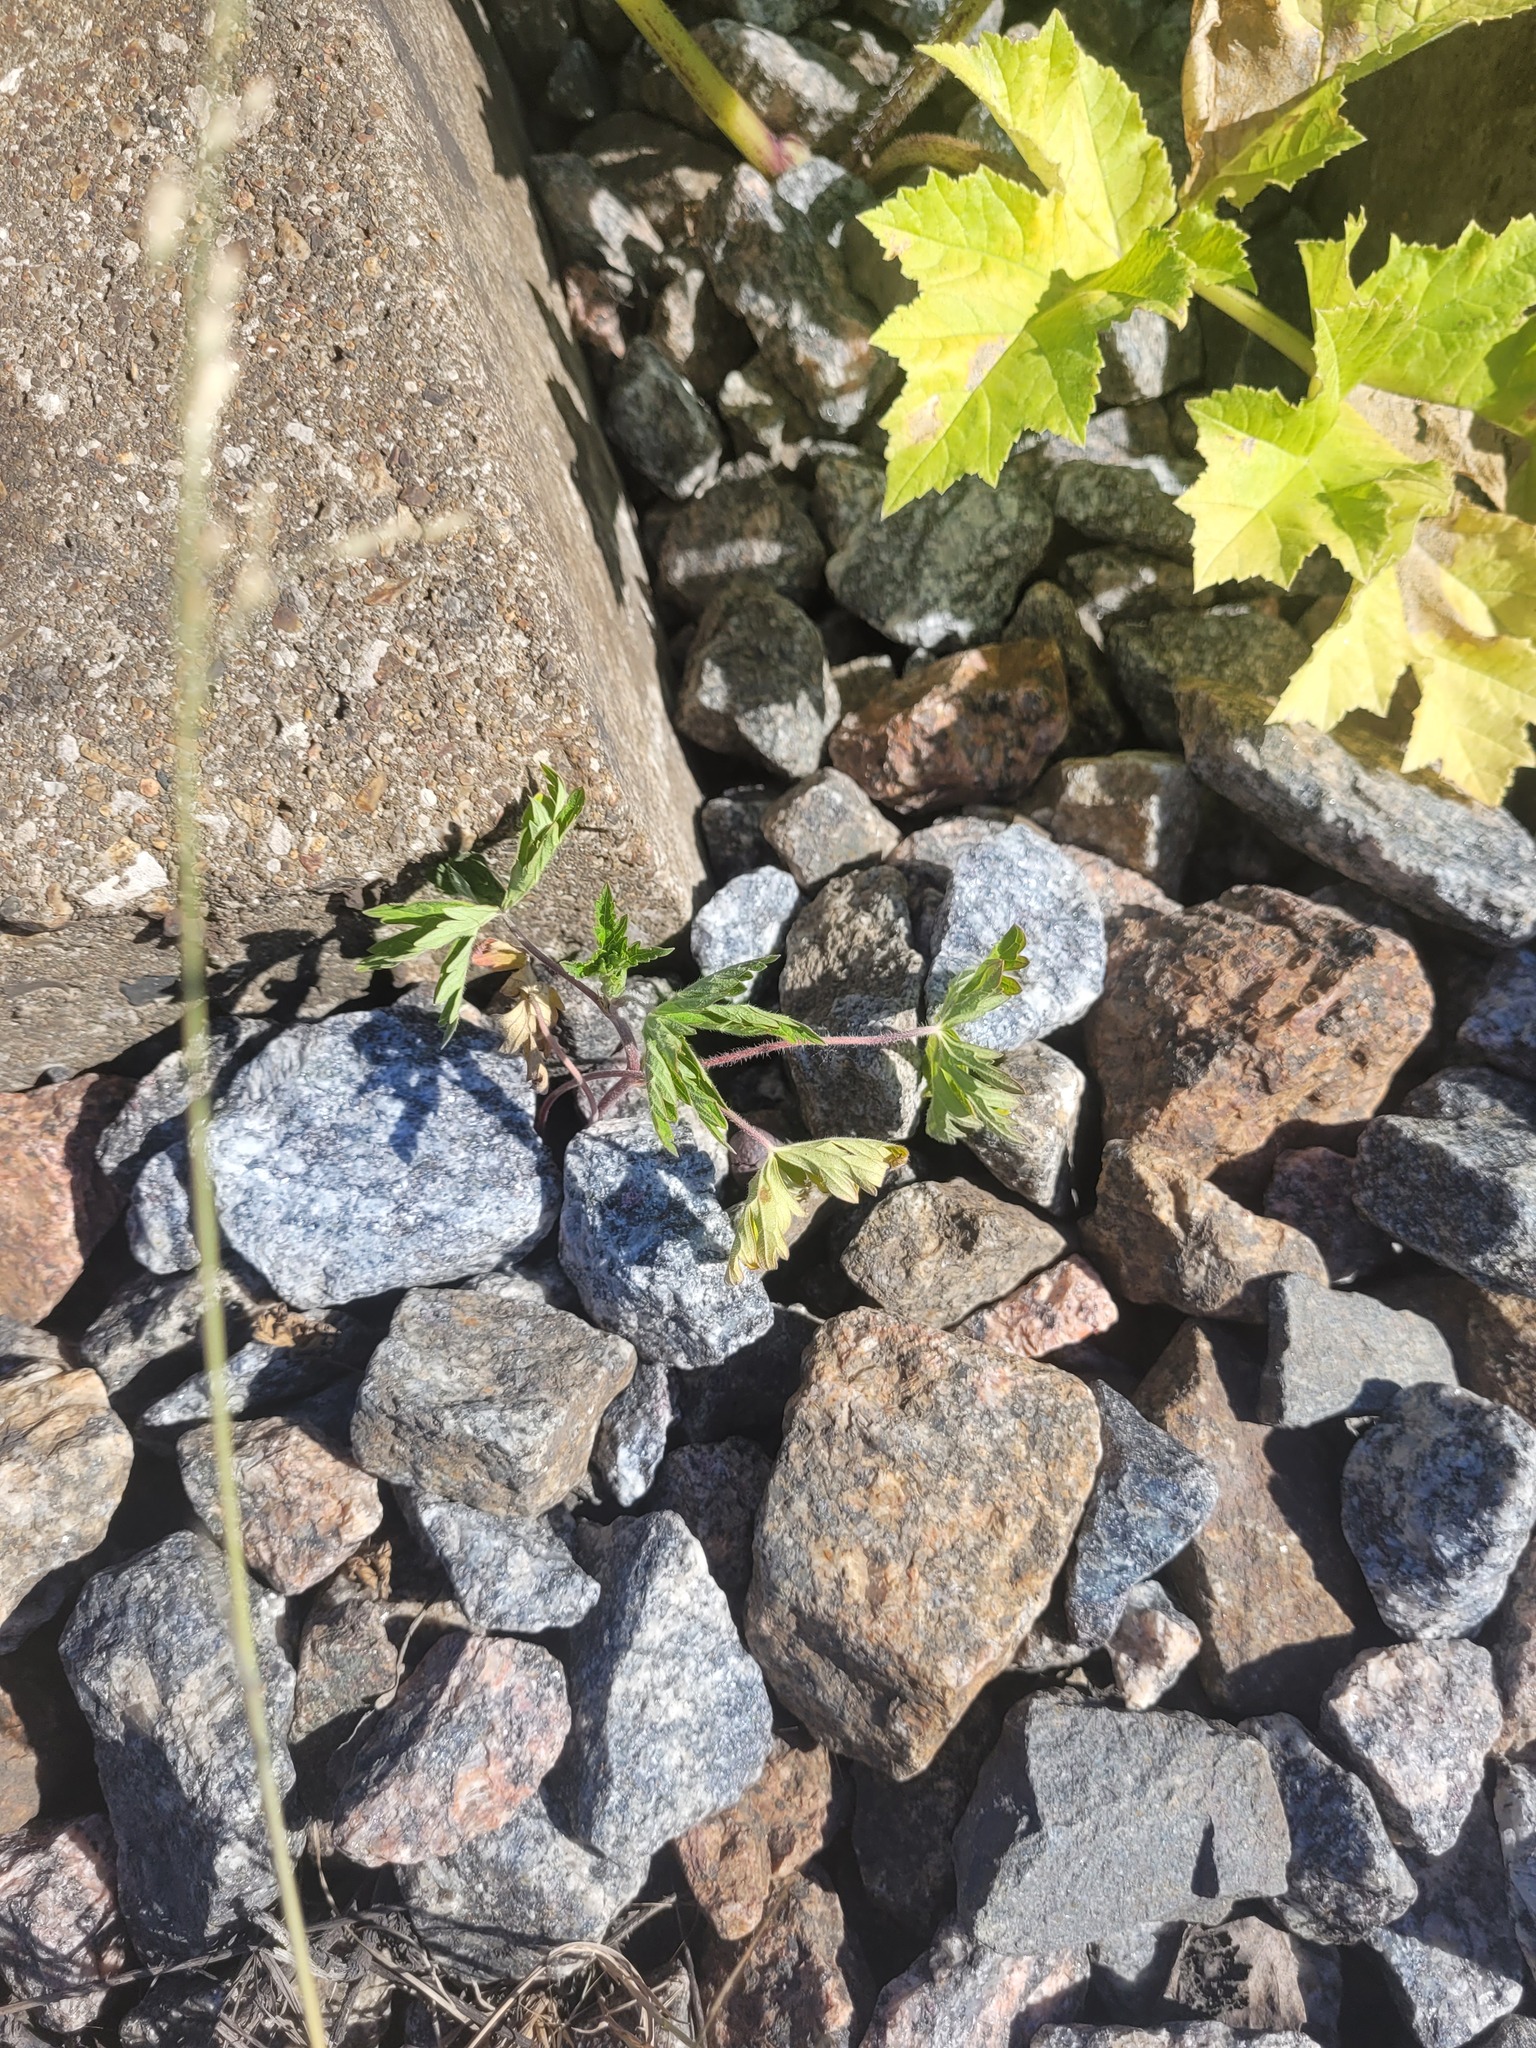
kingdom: Plantae
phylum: Tracheophyta
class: Magnoliopsida
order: Geraniales
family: Geraniaceae
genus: Geranium
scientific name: Geranium sibiricum
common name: Siberian crane's-bill
